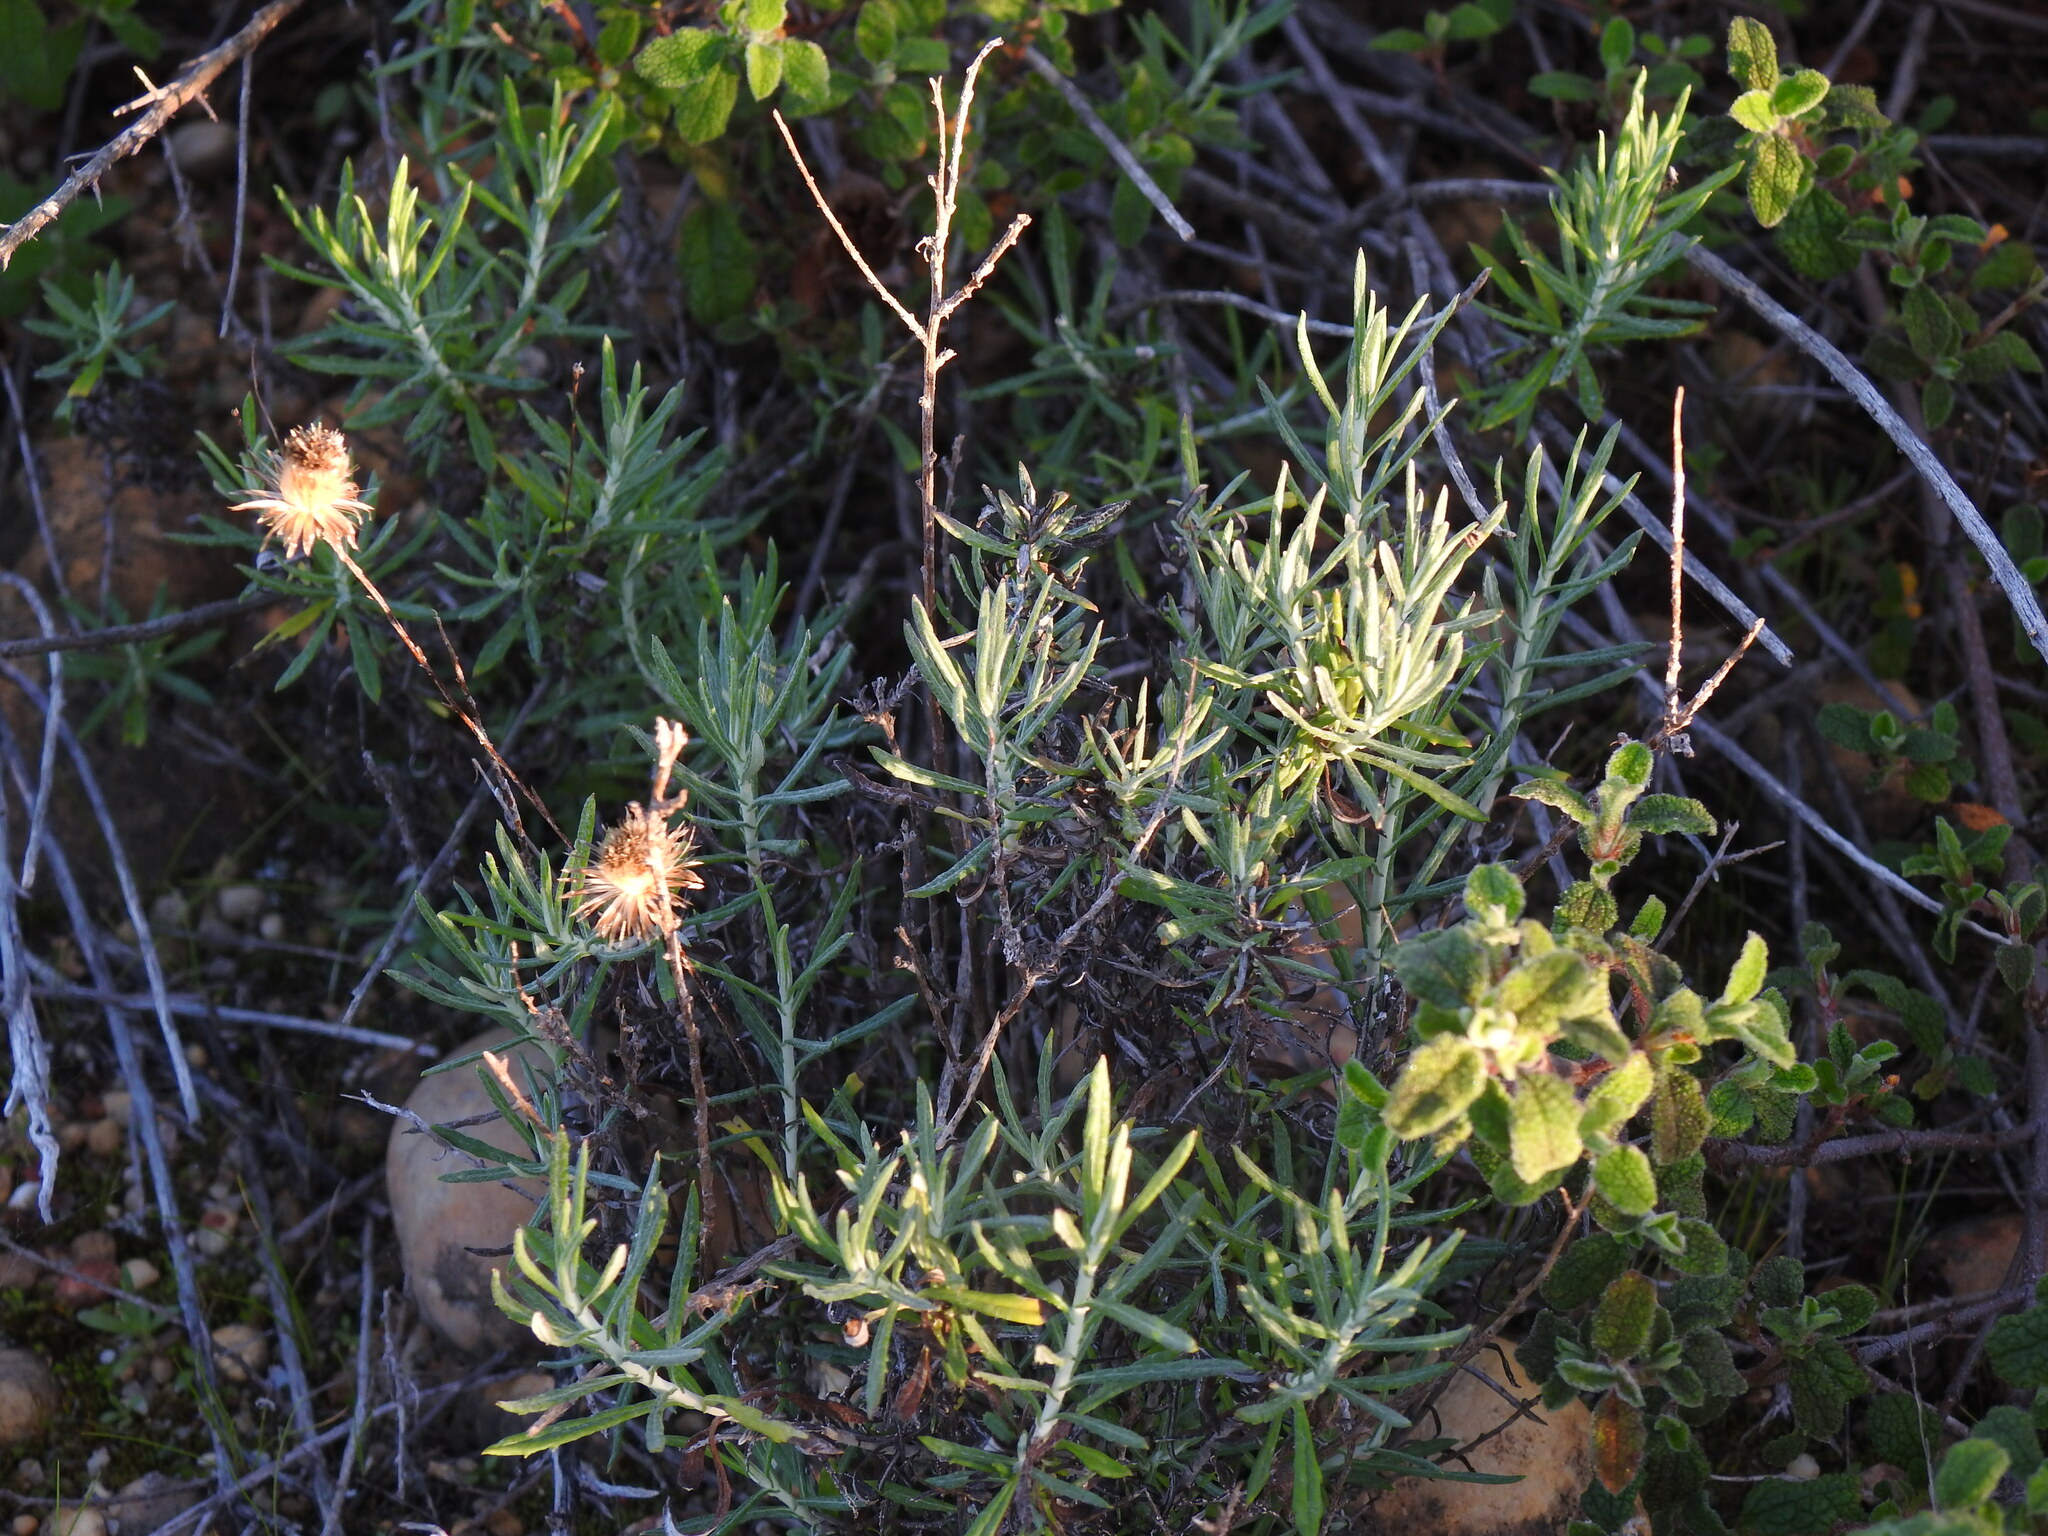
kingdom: Plantae
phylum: Tracheophyta
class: Magnoliopsida
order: Asterales
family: Asteraceae
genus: Phagnalon
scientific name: Phagnalon saxatile
